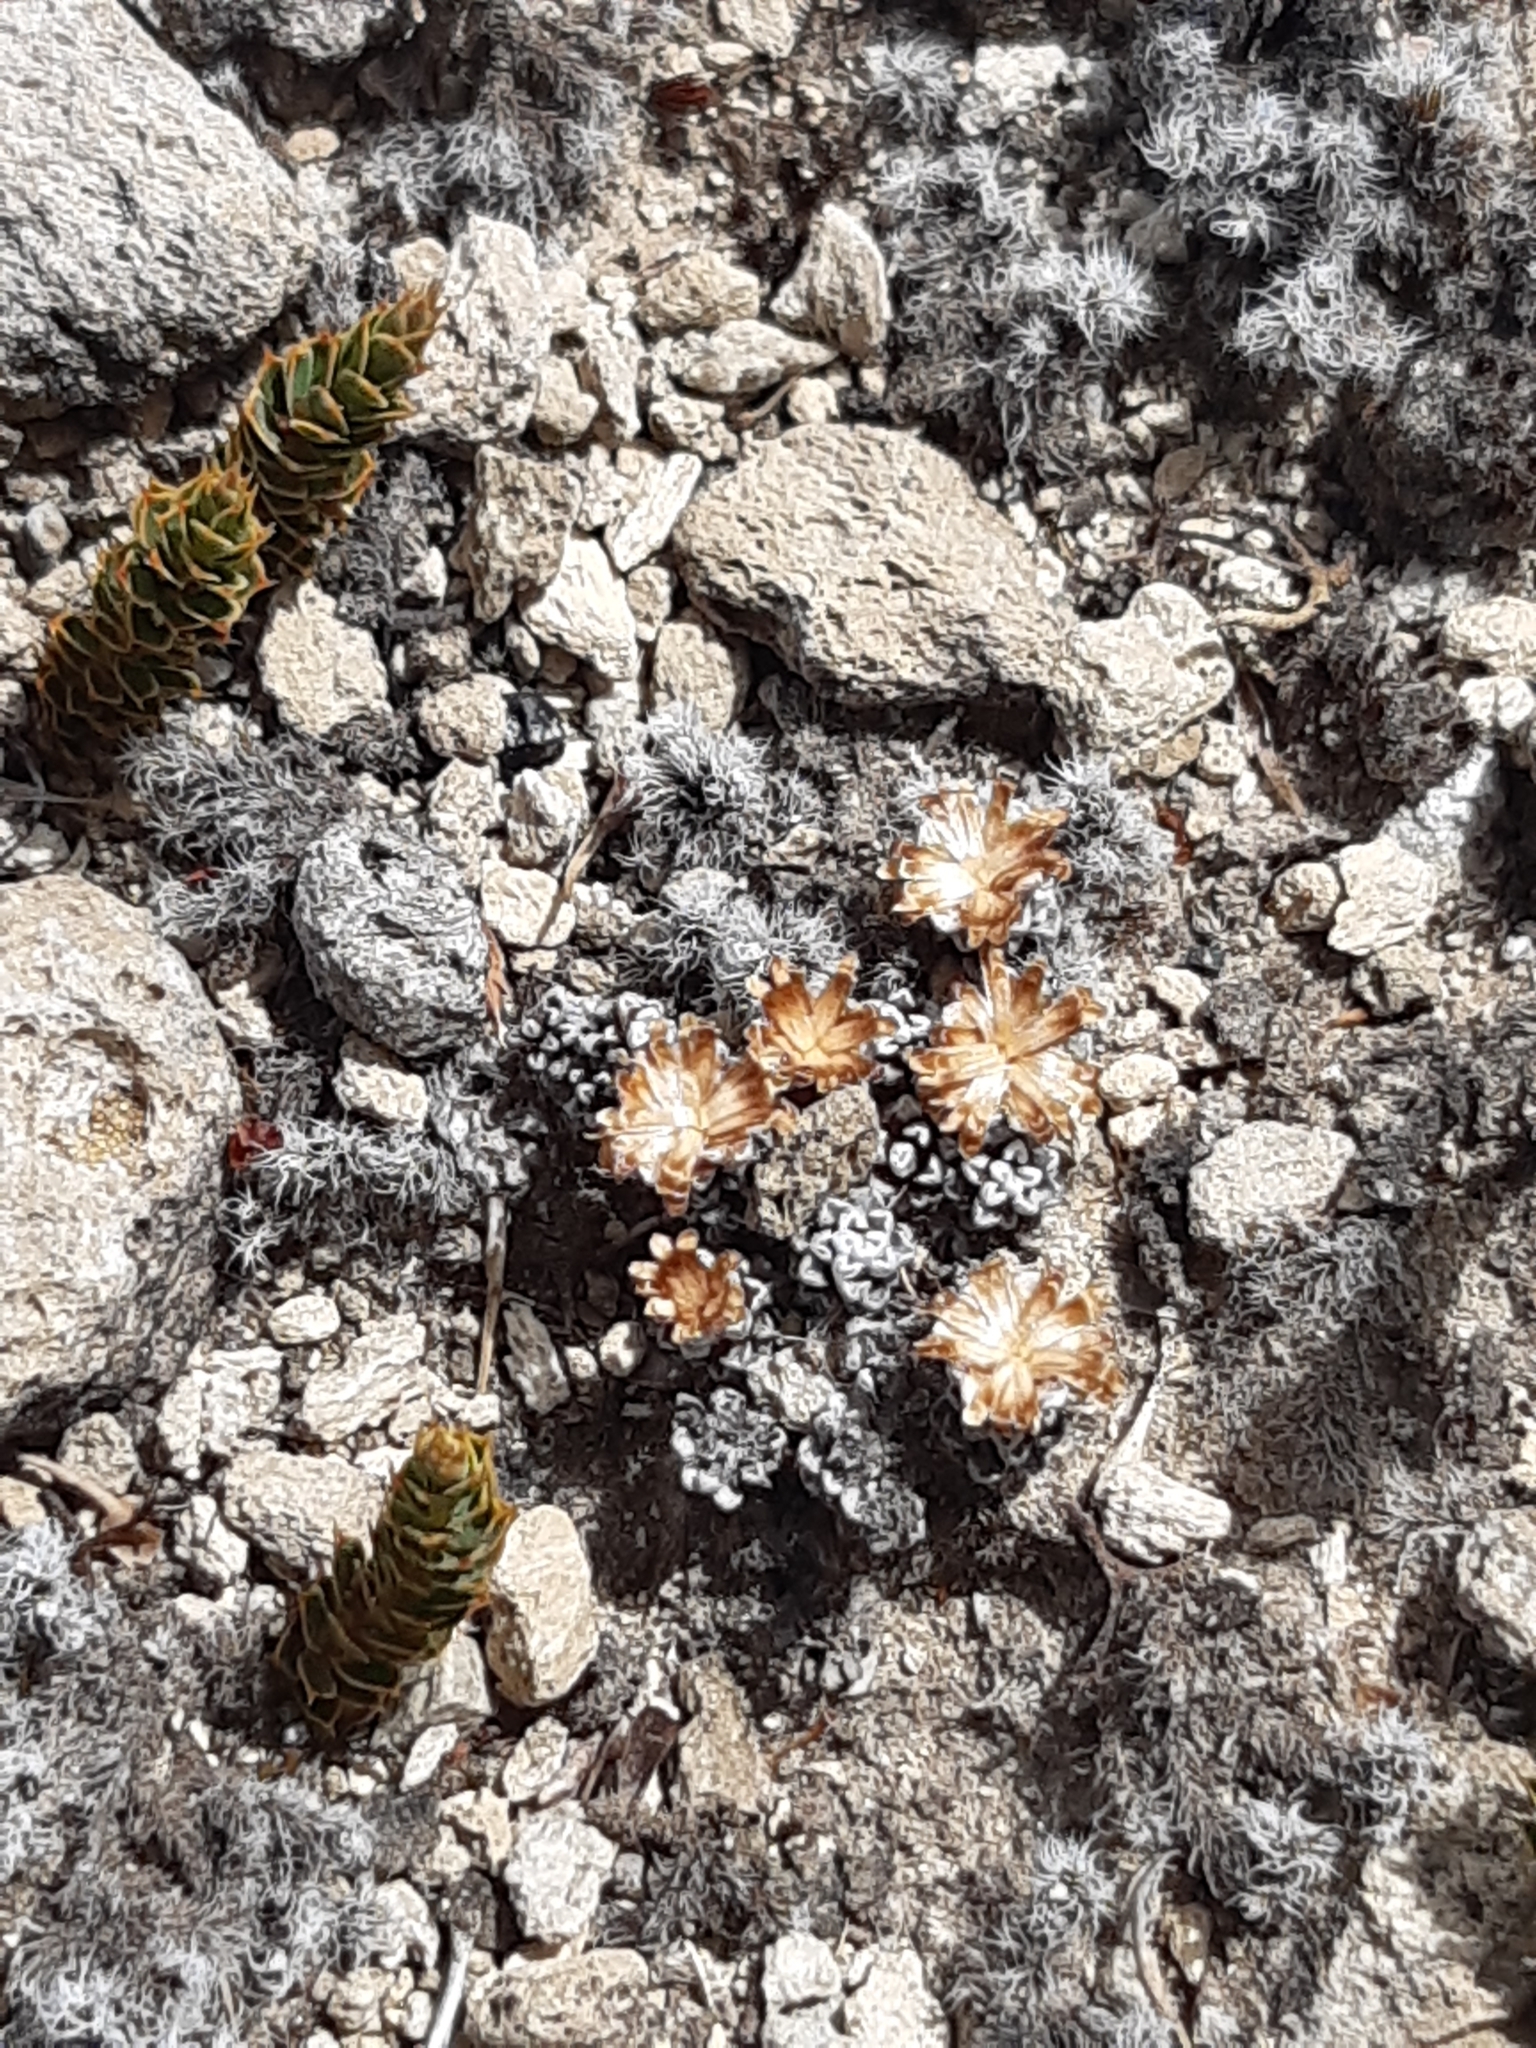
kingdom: Plantae
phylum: Tracheophyta
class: Magnoliopsida
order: Asterales
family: Asteraceae
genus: Raoulia
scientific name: Raoulia albosericea
